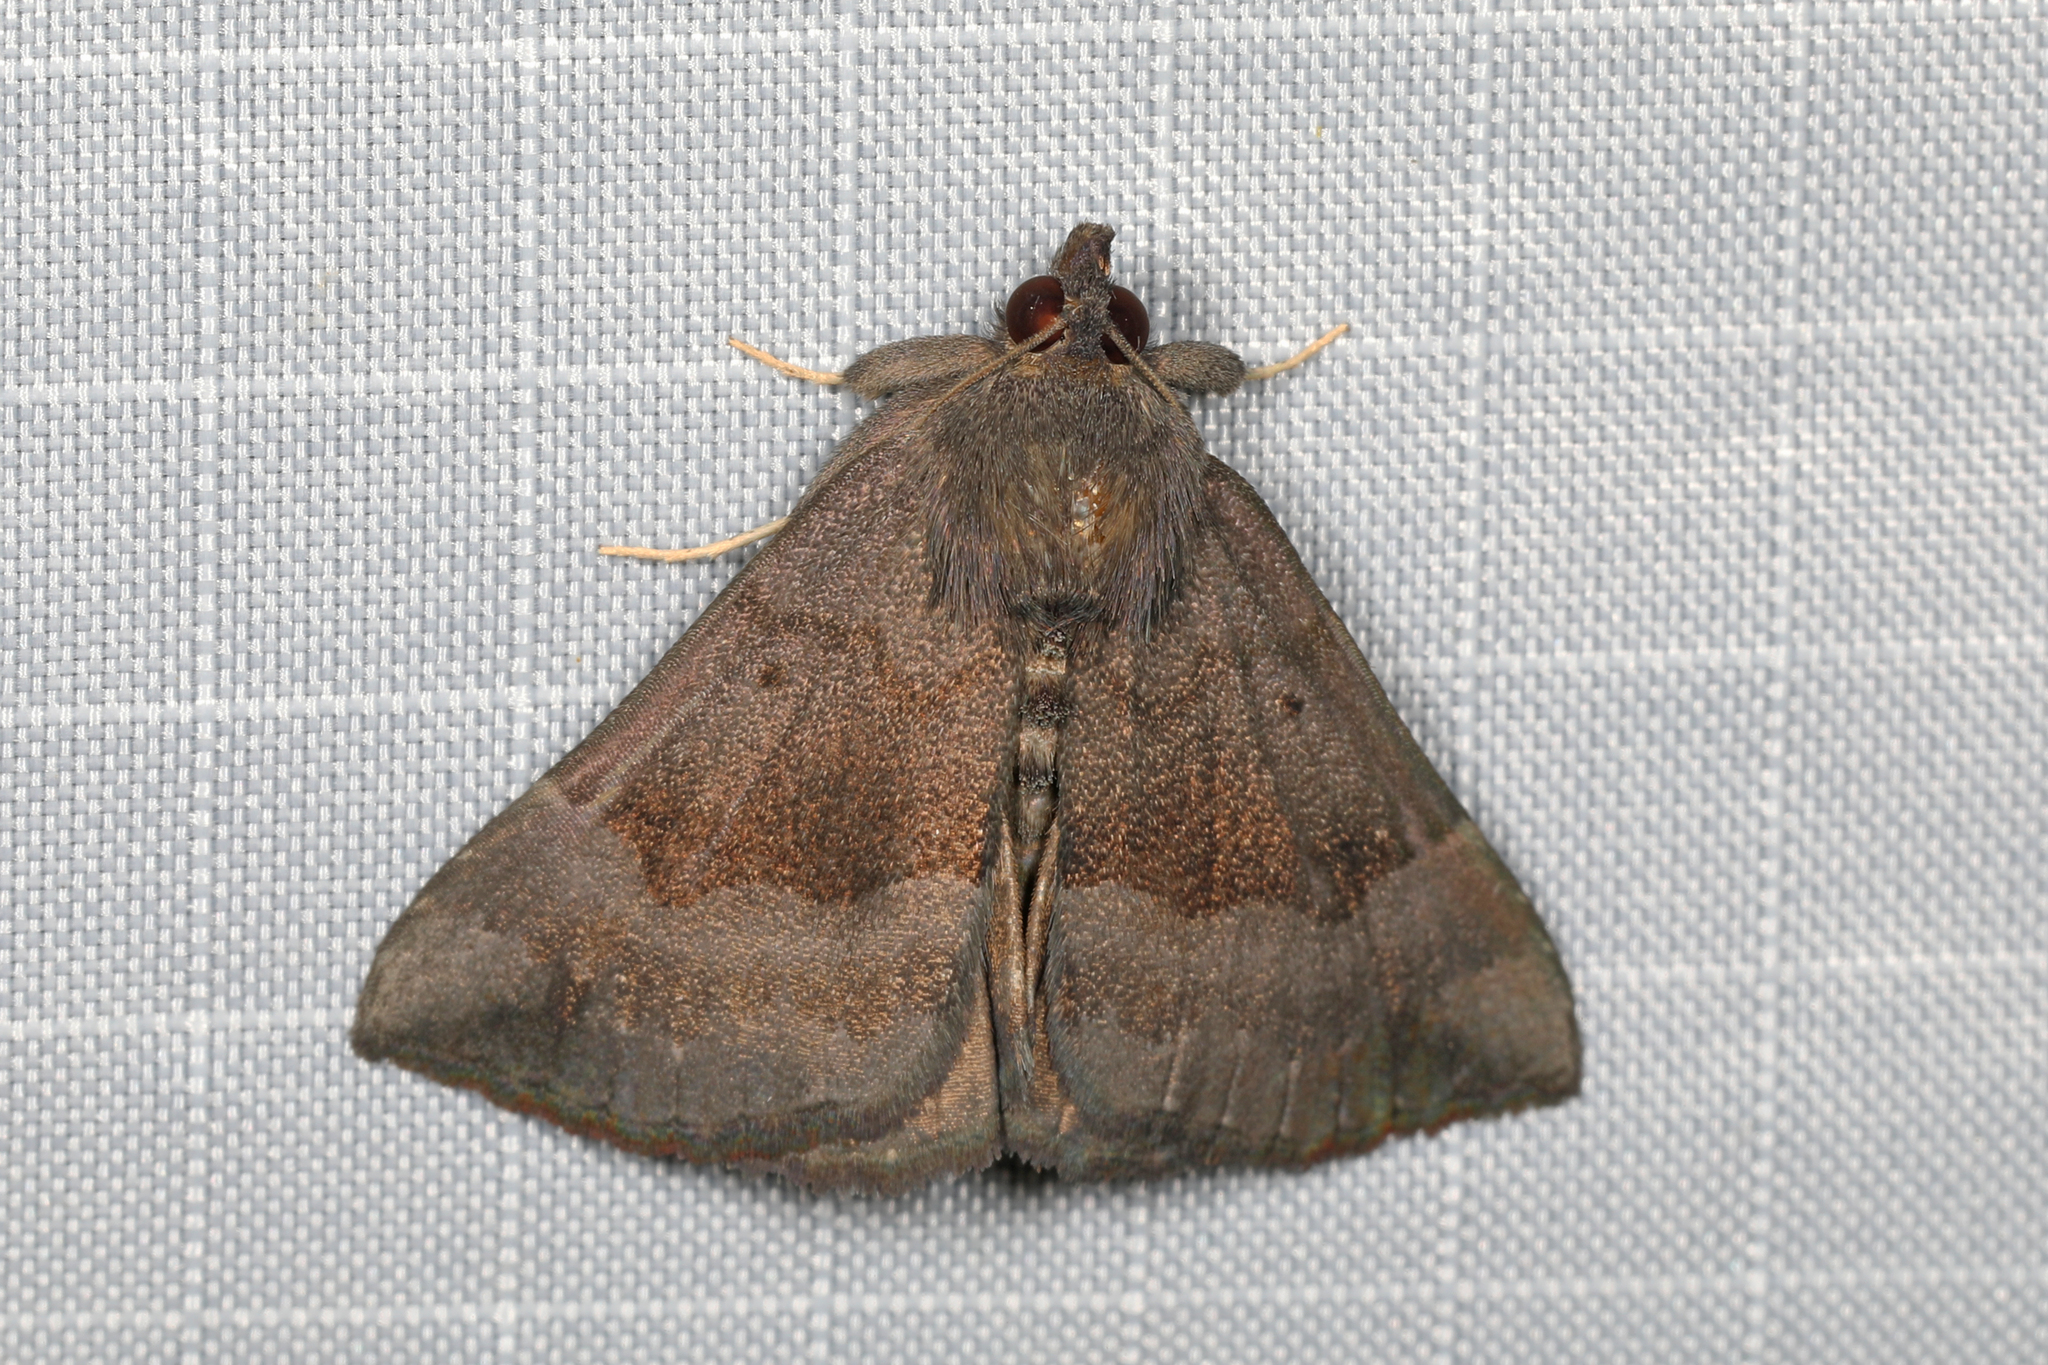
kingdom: Animalia
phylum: Arthropoda
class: Insecta
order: Lepidoptera
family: Erebidae
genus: Hypena
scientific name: Hypena madefactalis
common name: Gray-edged snout
